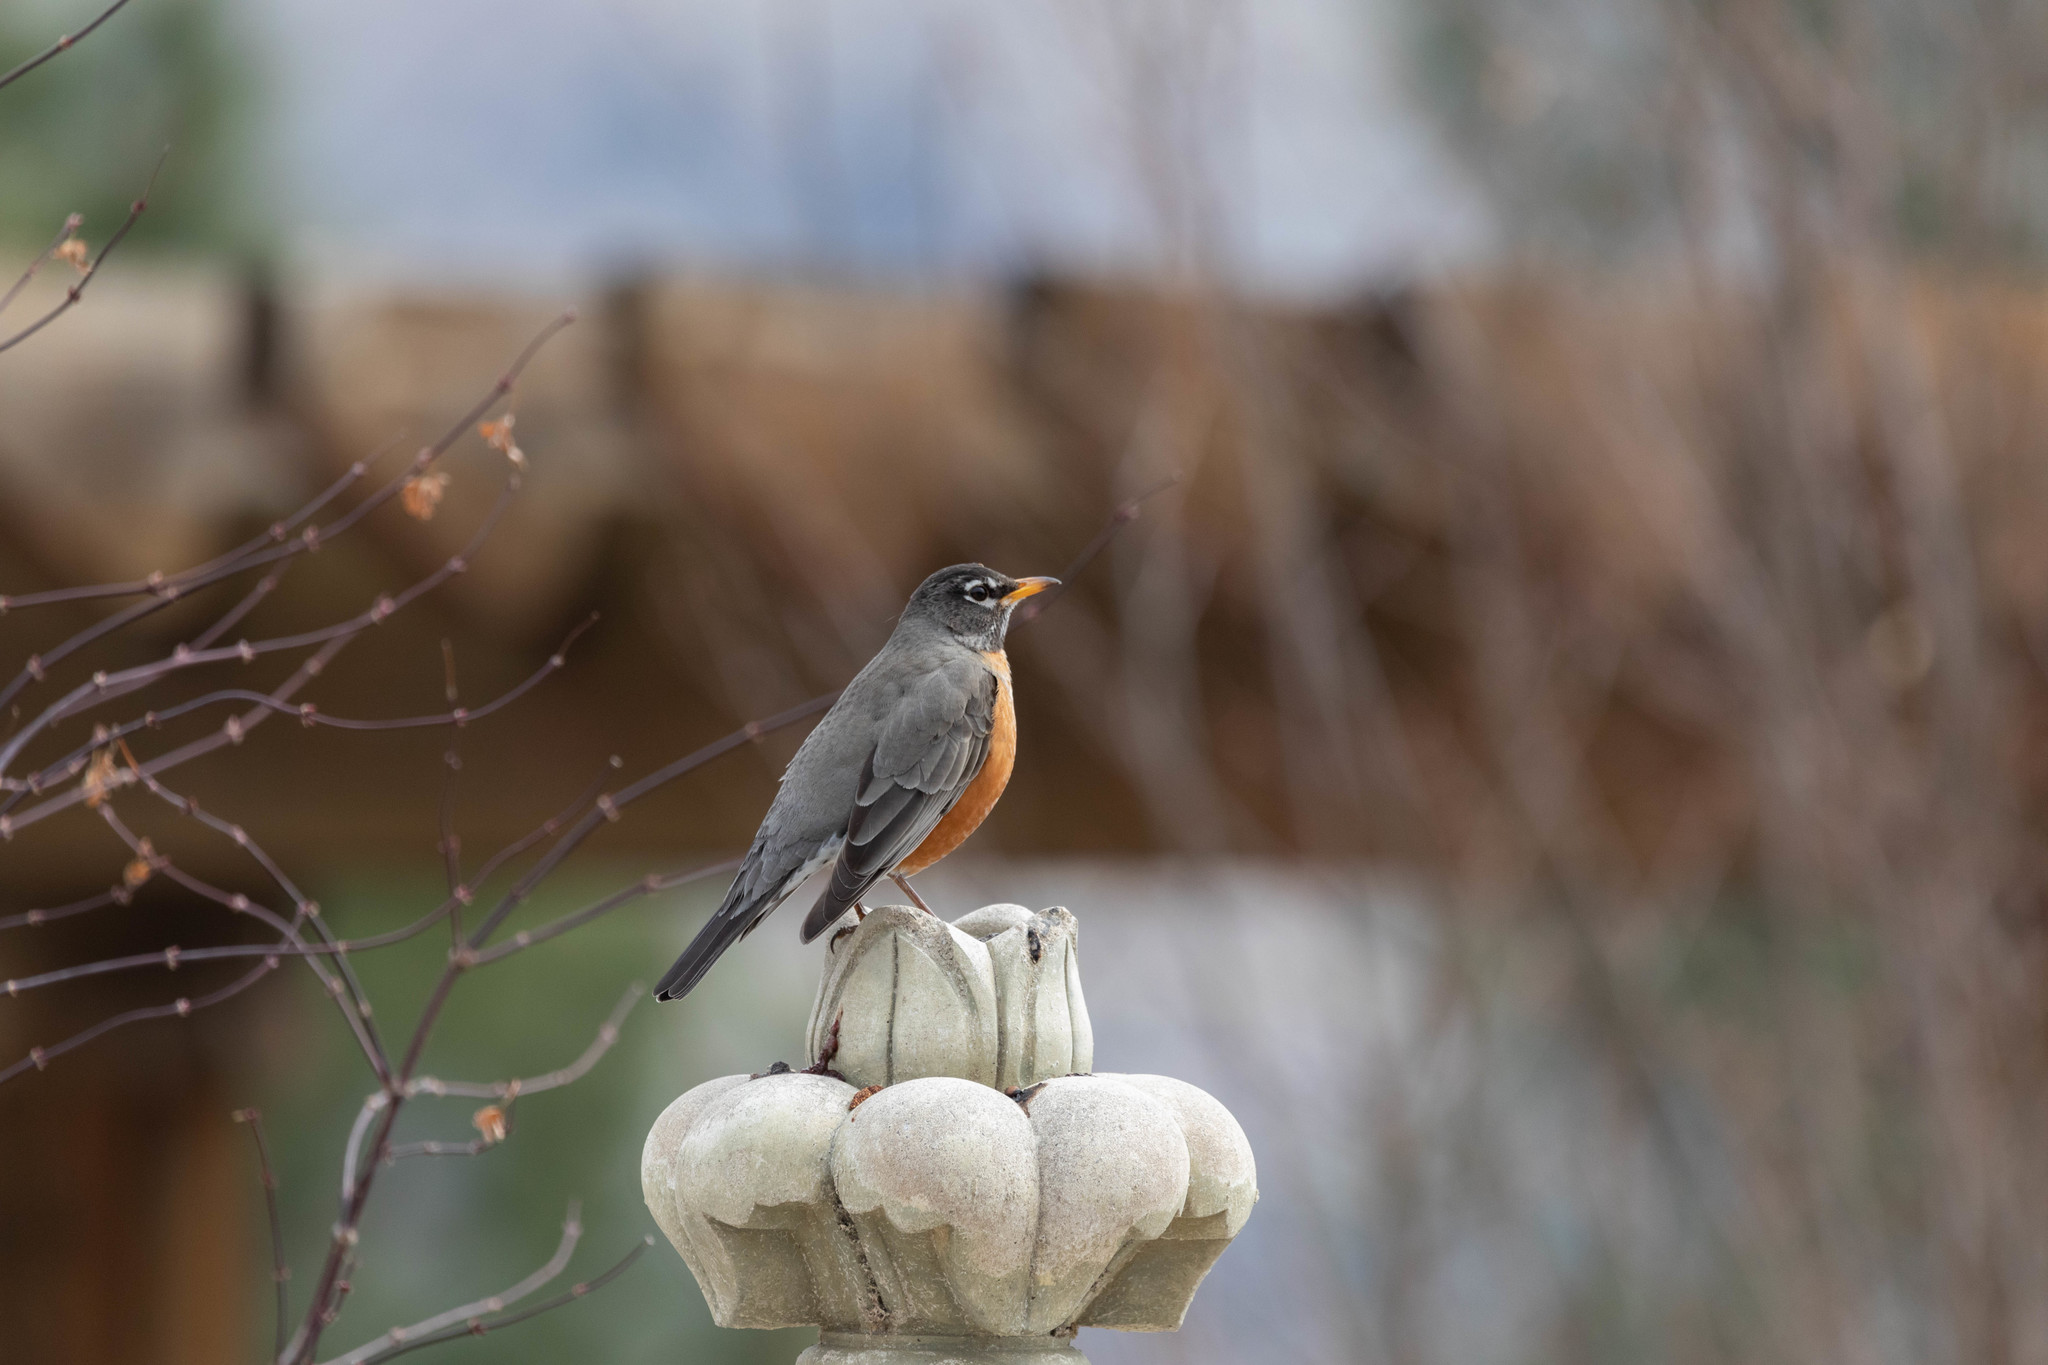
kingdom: Animalia
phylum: Chordata
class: Aves
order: Passeriformes
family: Turdidae
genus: Turdus
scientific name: Turdus migratorius
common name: American robin
